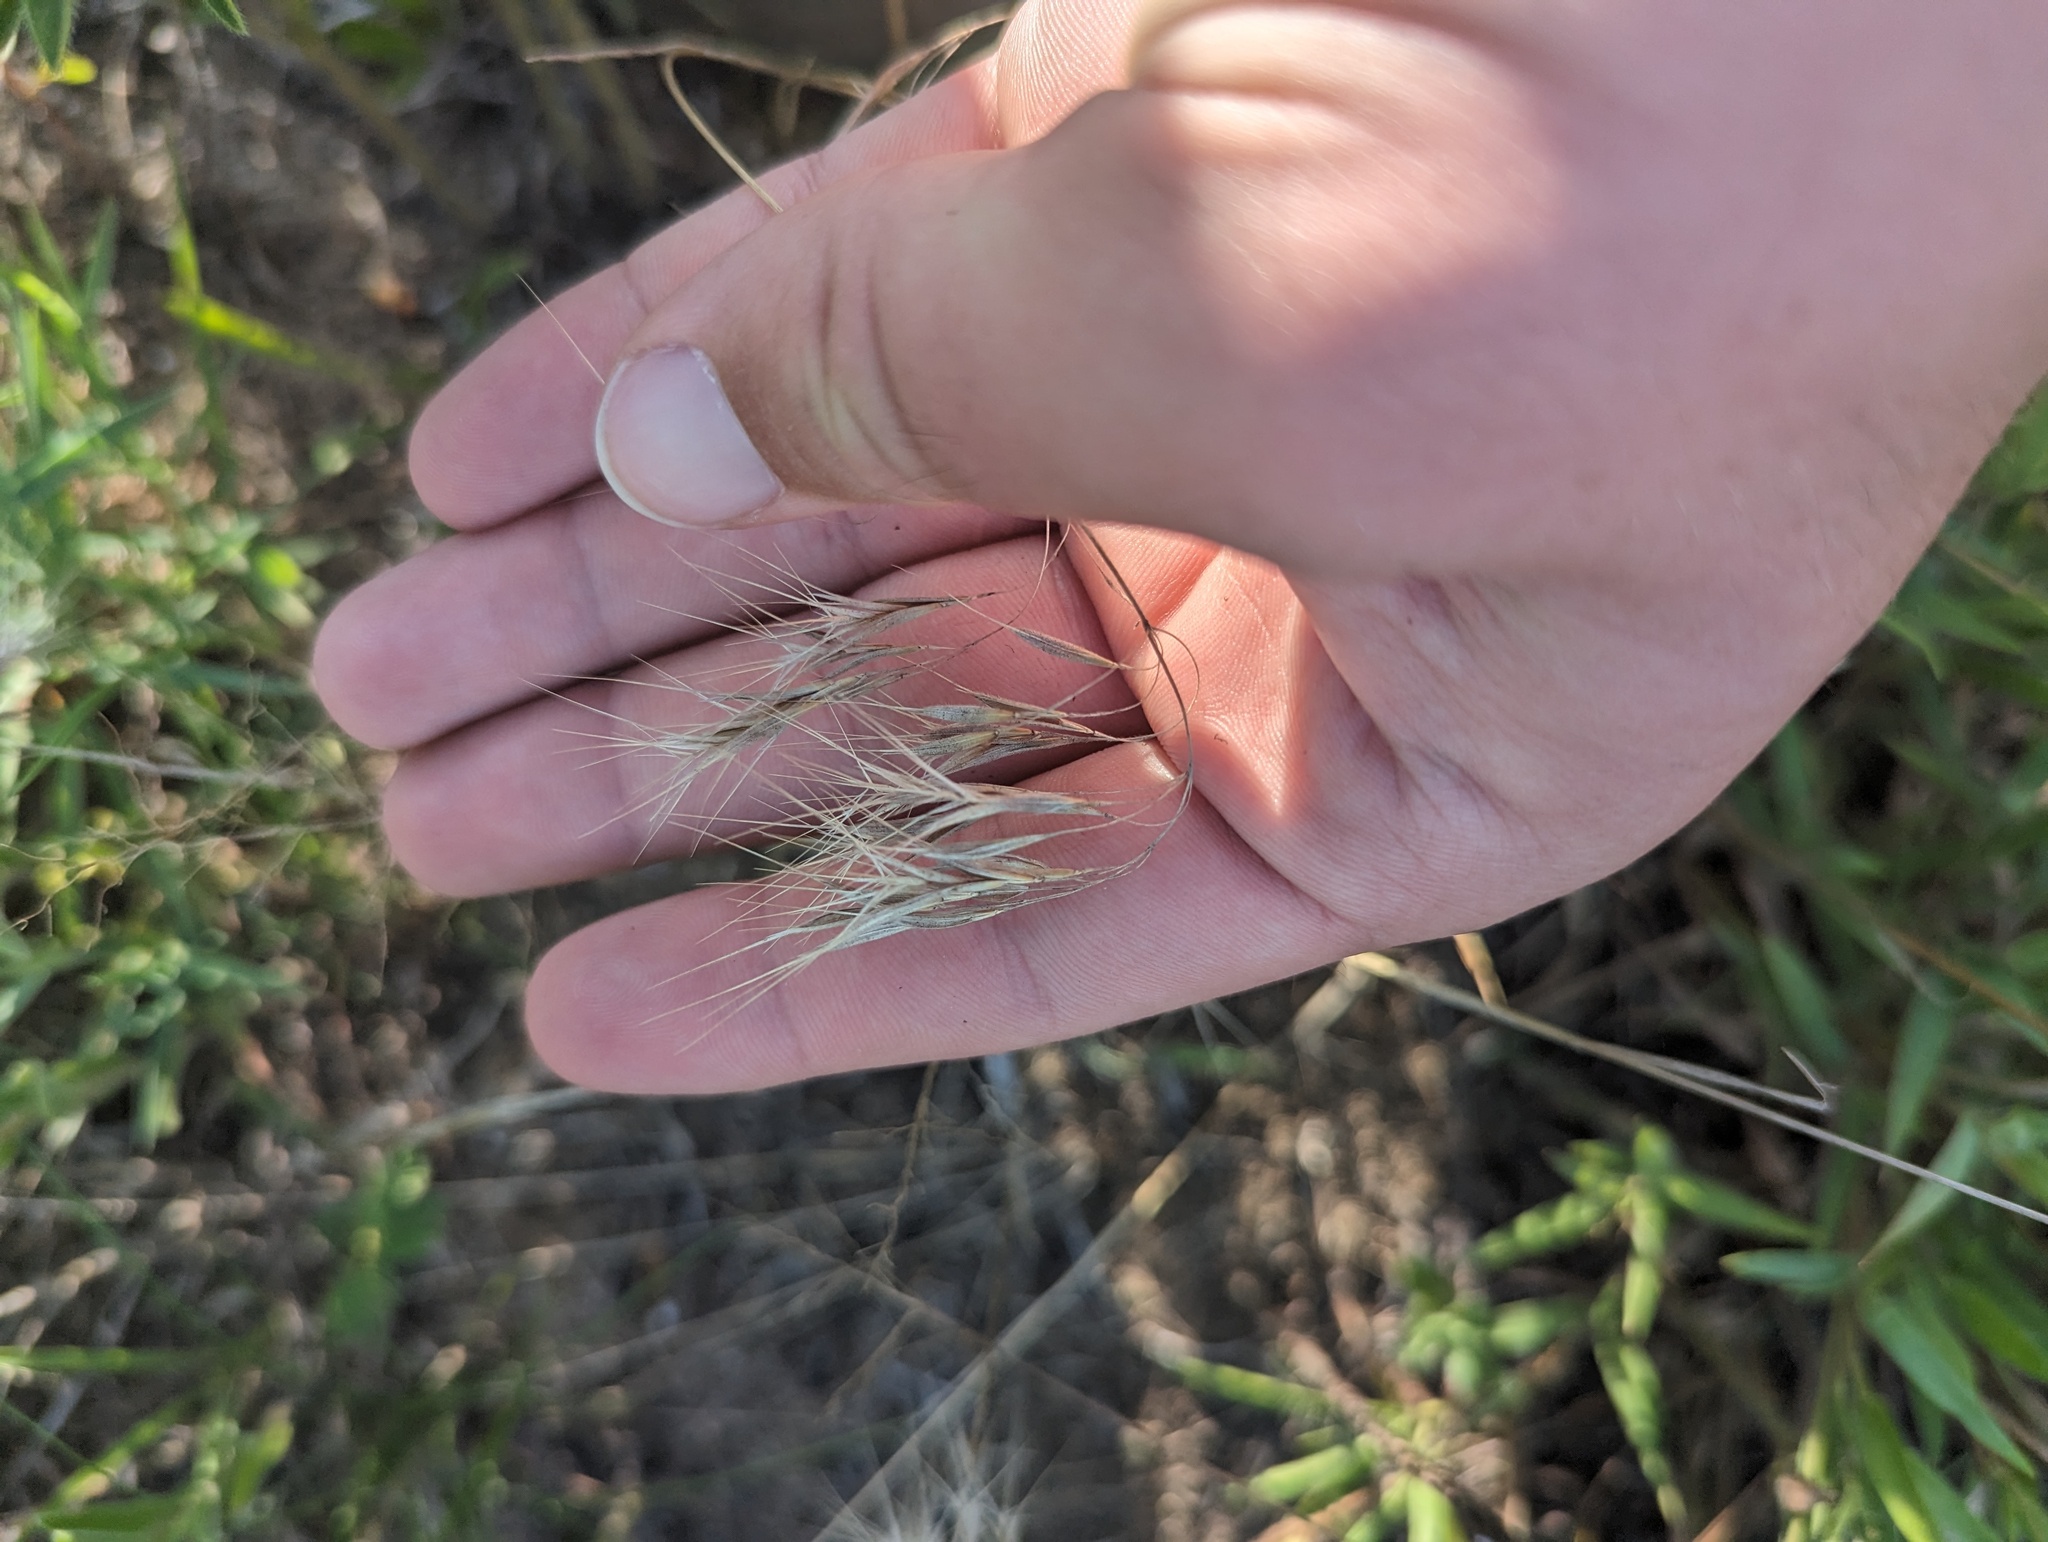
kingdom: Plantae
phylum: Tracheophyta
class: Liliopsida
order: Poales
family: Poaceae
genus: Bromus
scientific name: Bromus tectorum
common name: Cheatgrass
